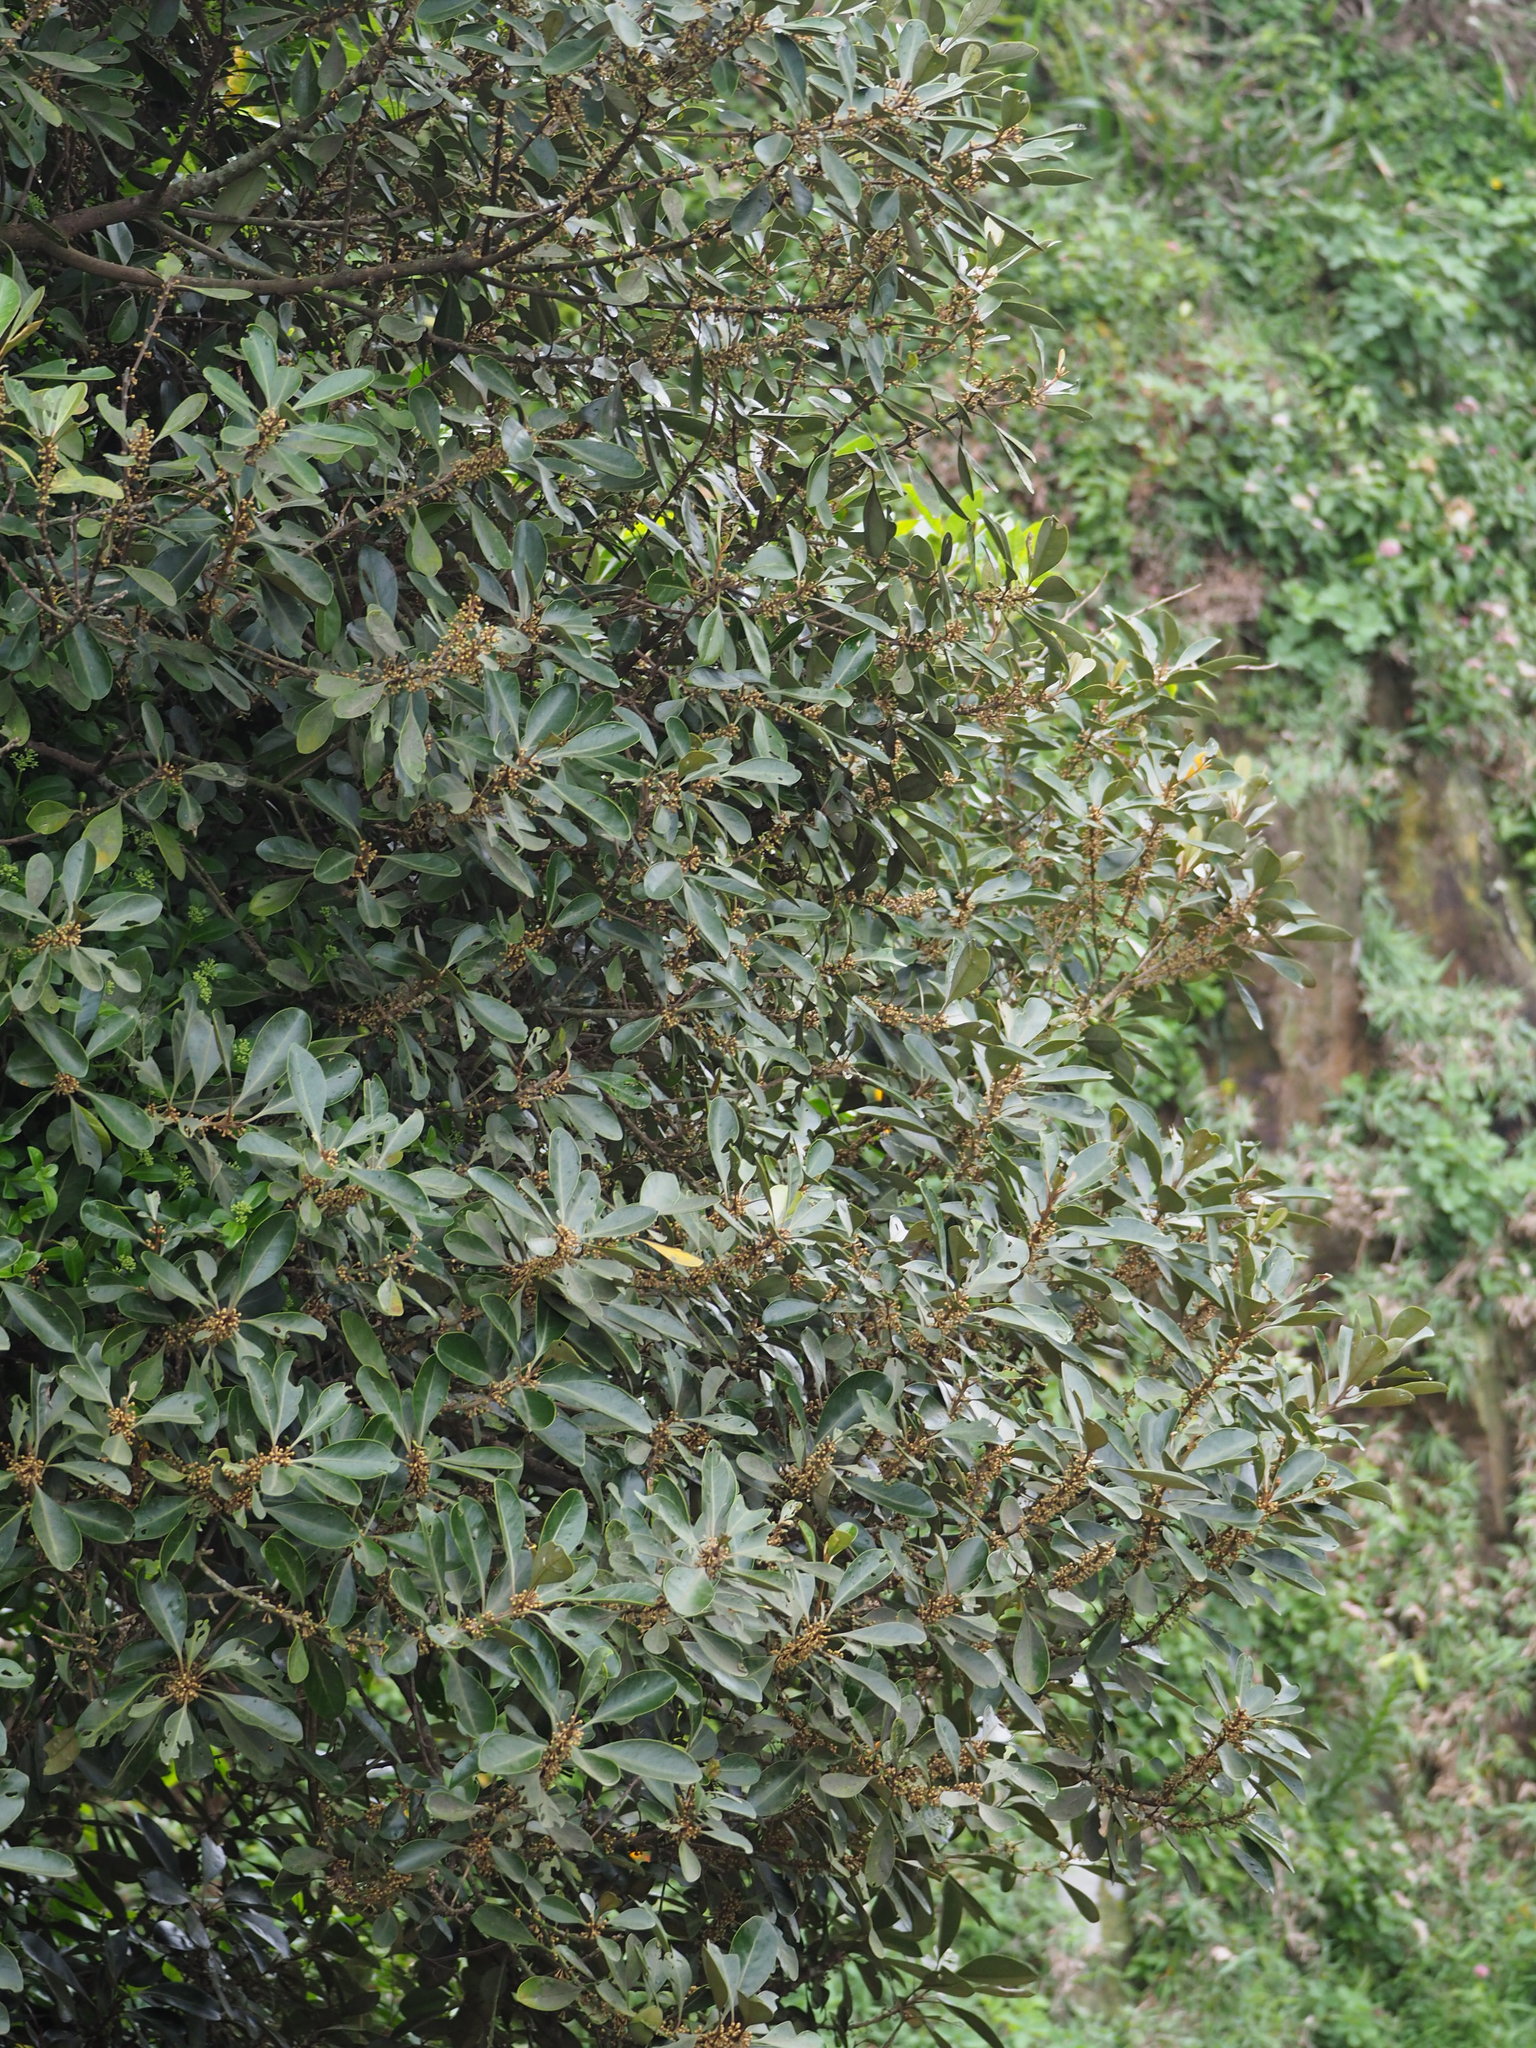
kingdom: Plantae
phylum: Tracheophyta
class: Magnoliopsida
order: Ericales
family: Sapotaceae
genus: Planchonella
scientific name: Planchonella obovata
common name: Black-ash
